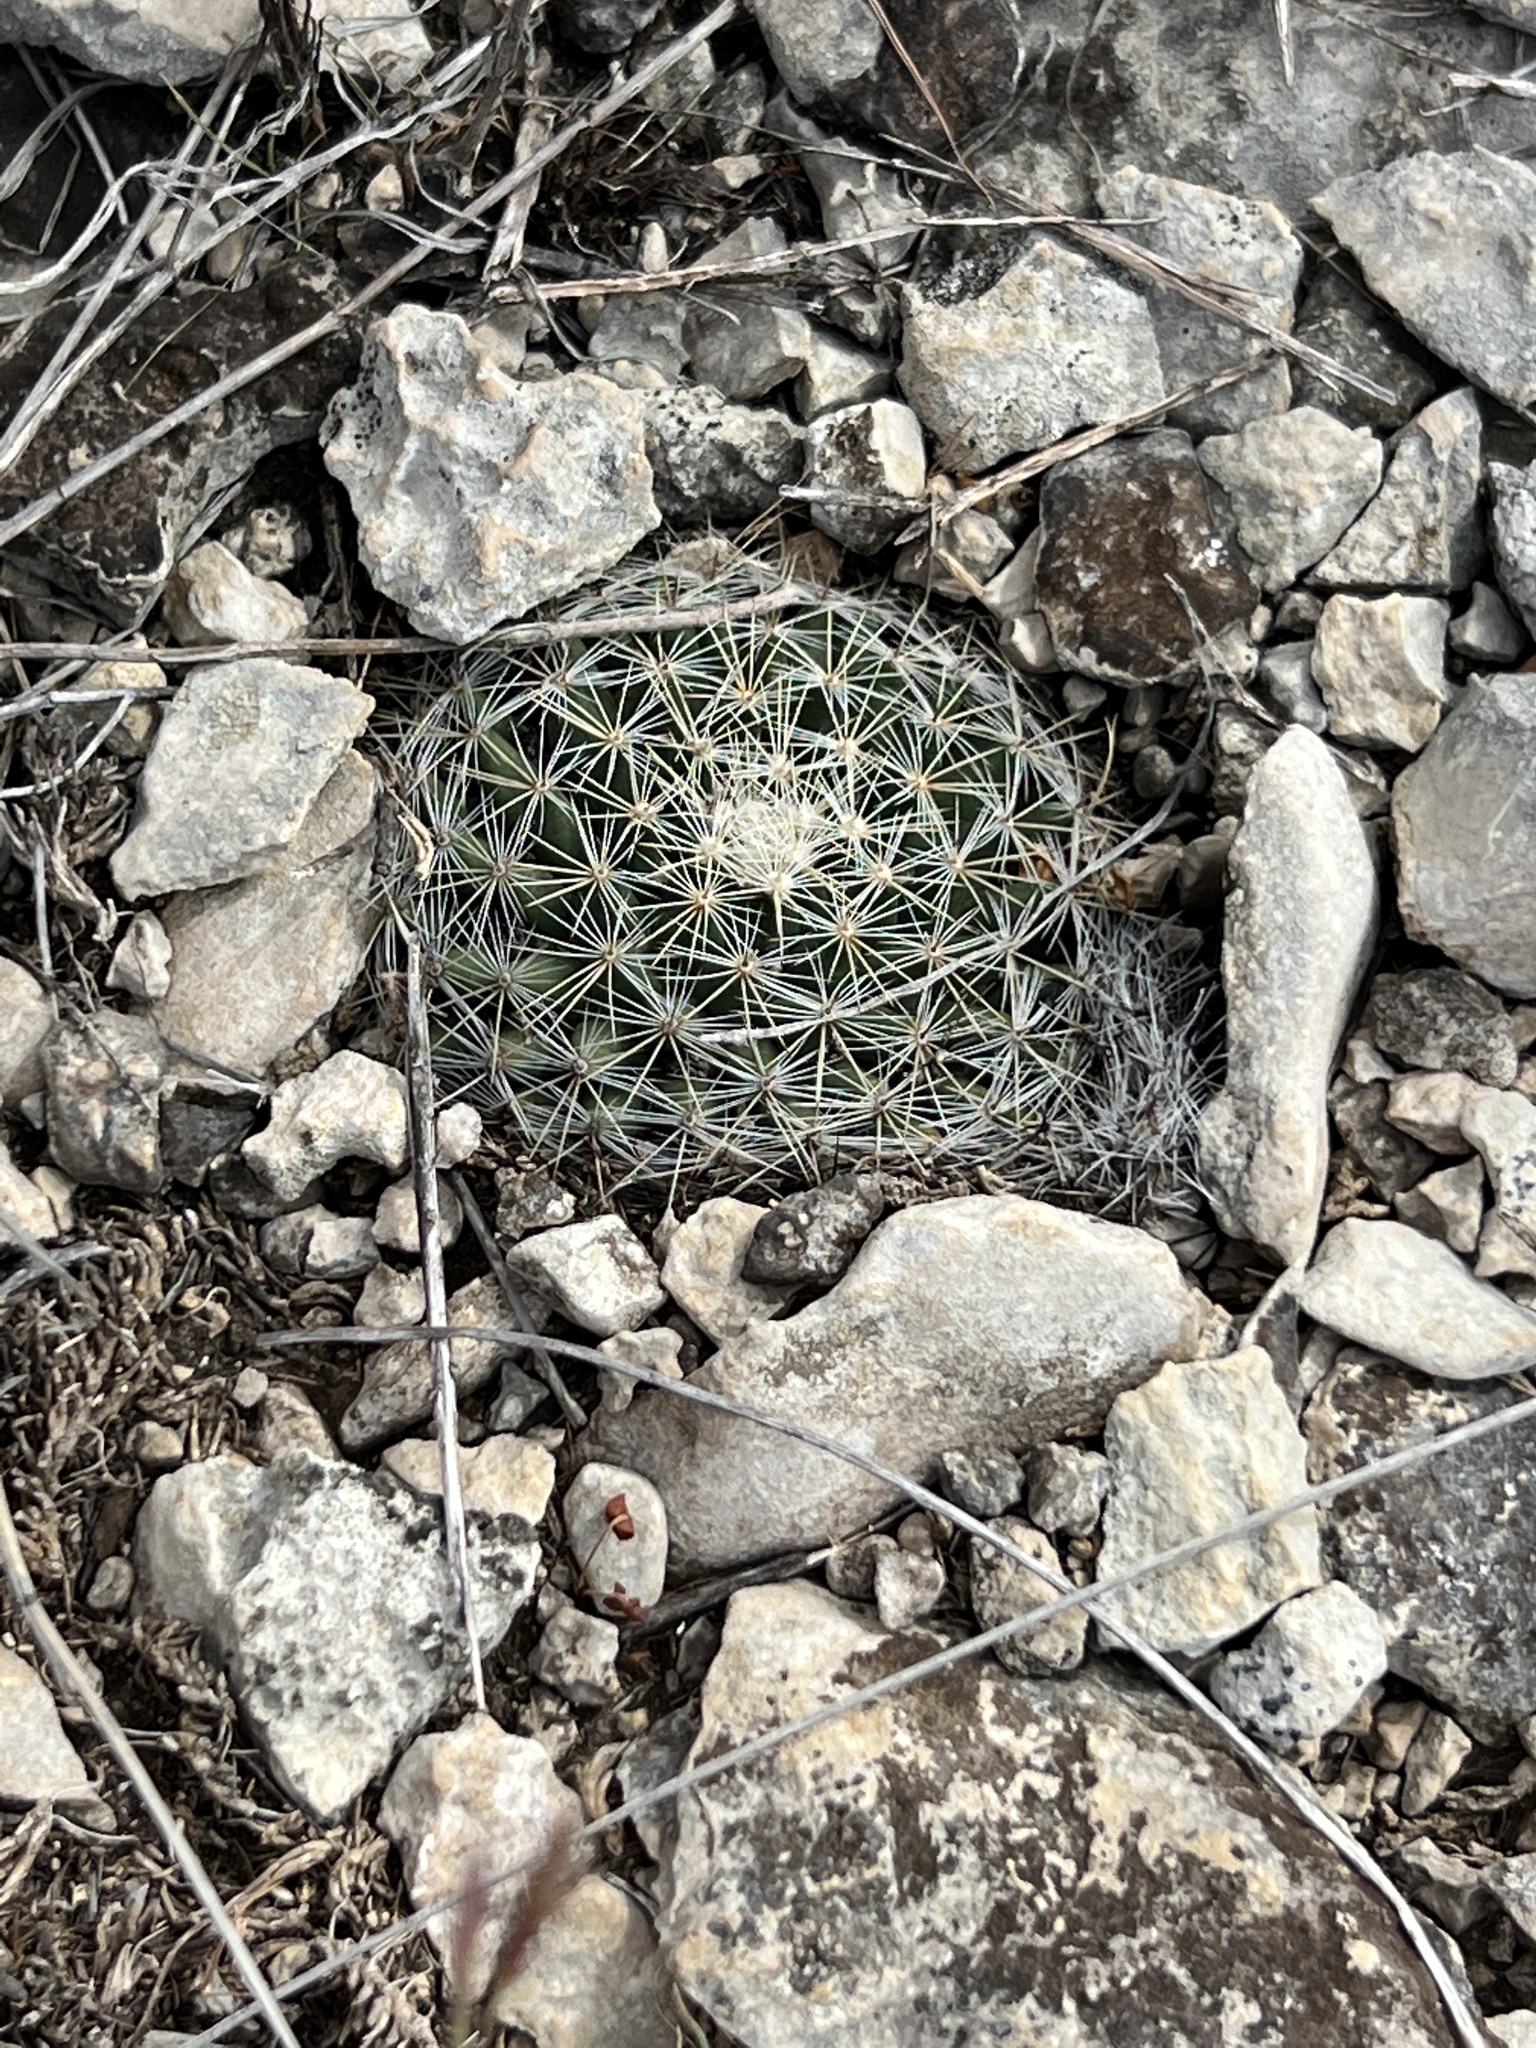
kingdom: Plantae
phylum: Tracheophyta
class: Magnoliopsida
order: Caryophyllales
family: Cactaceae
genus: Mammillaria
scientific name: Mammillaria heyderi
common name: Little nipple cactus
